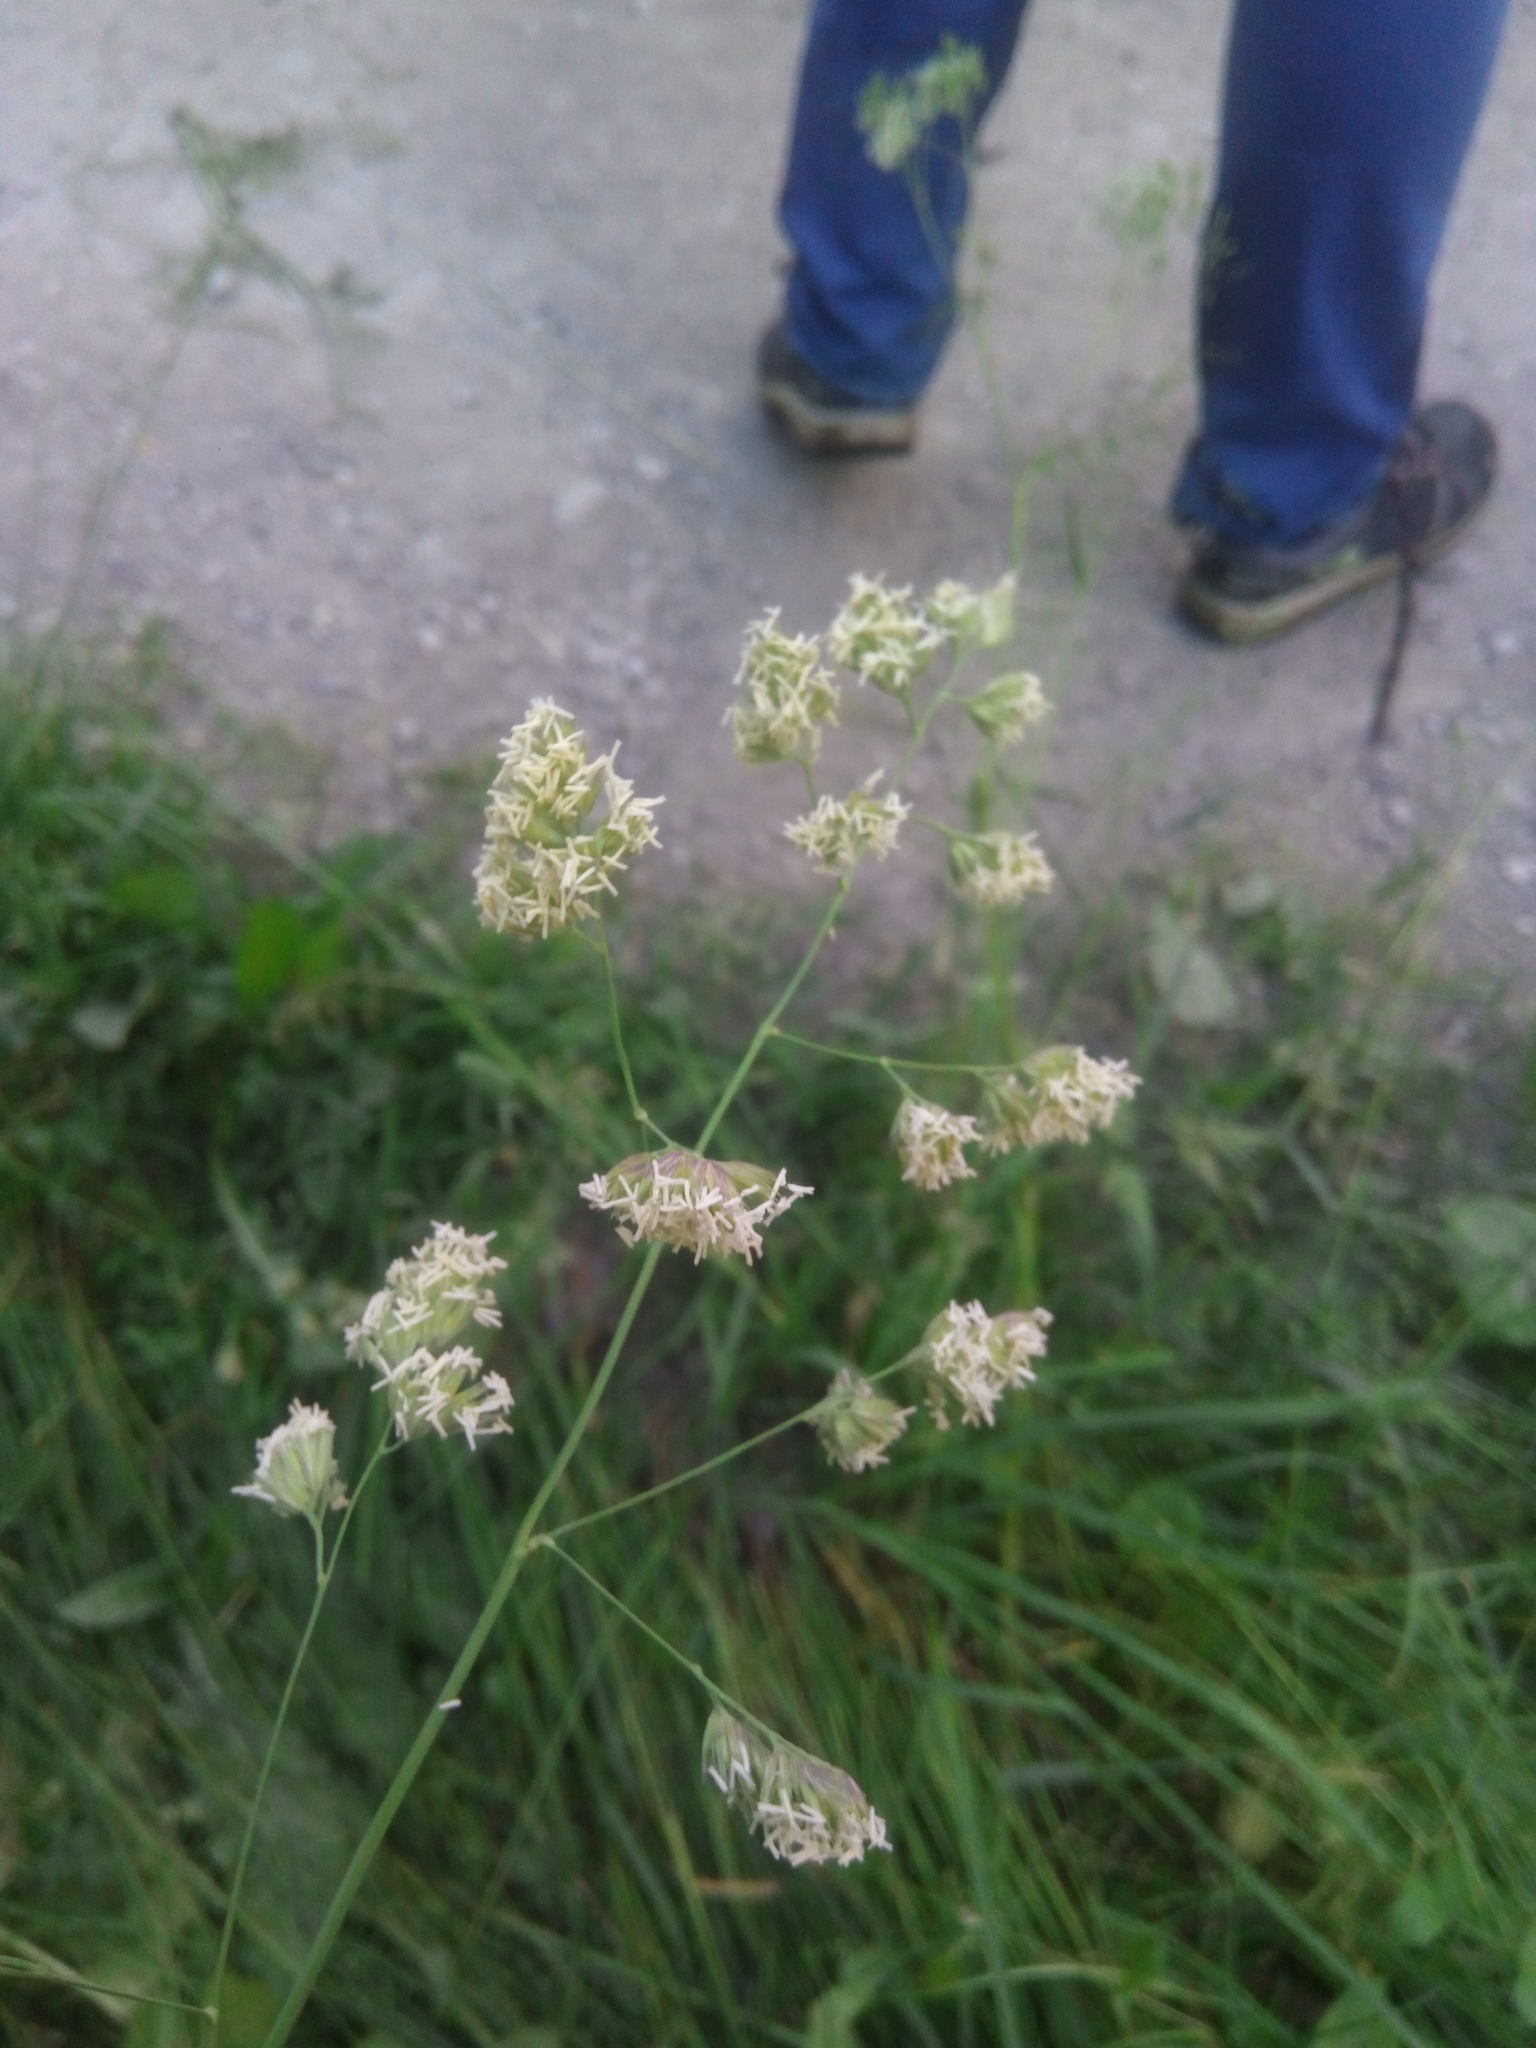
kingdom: Plantae
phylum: Tracheophyta
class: Liliopsida
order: Poales
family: Poaceae
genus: Dactylis
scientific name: Dactylis glomerata
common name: Orchardgrass
